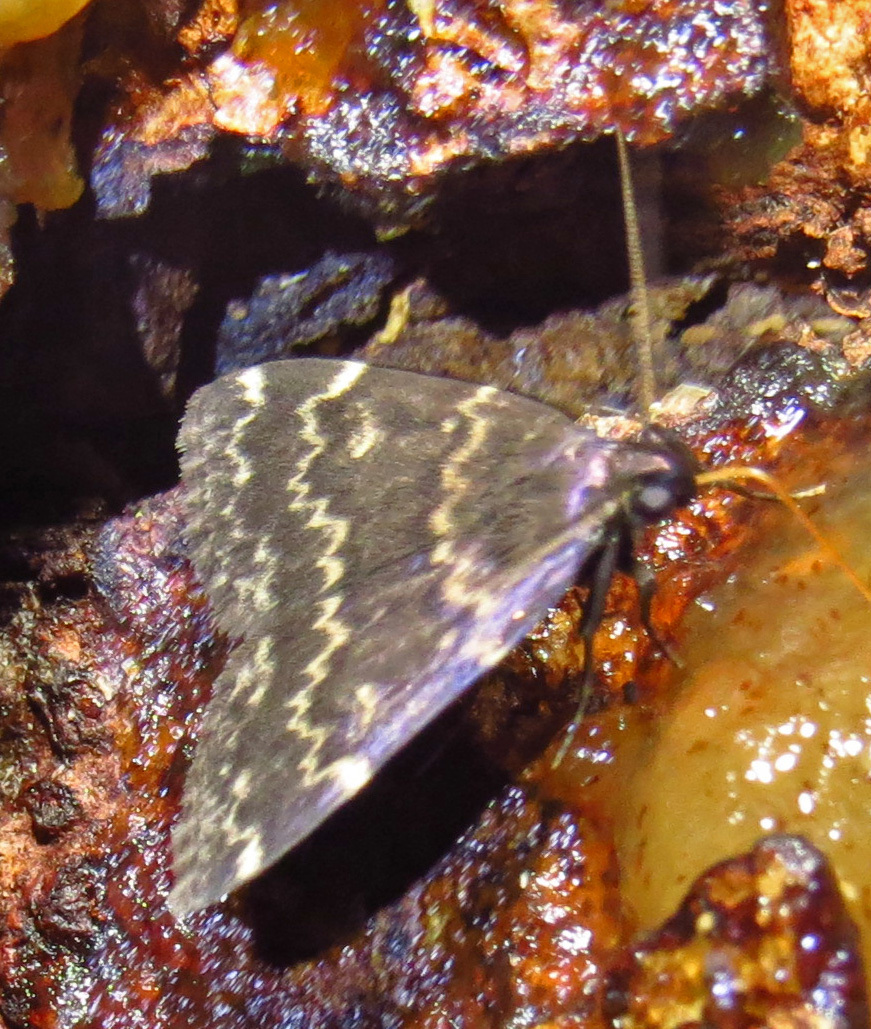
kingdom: Animalia
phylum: Arthropoda
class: Insecta
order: Lepidoptera
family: Erebidae
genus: Idia
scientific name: Idia lubricalis
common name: Twin-striped tabby
